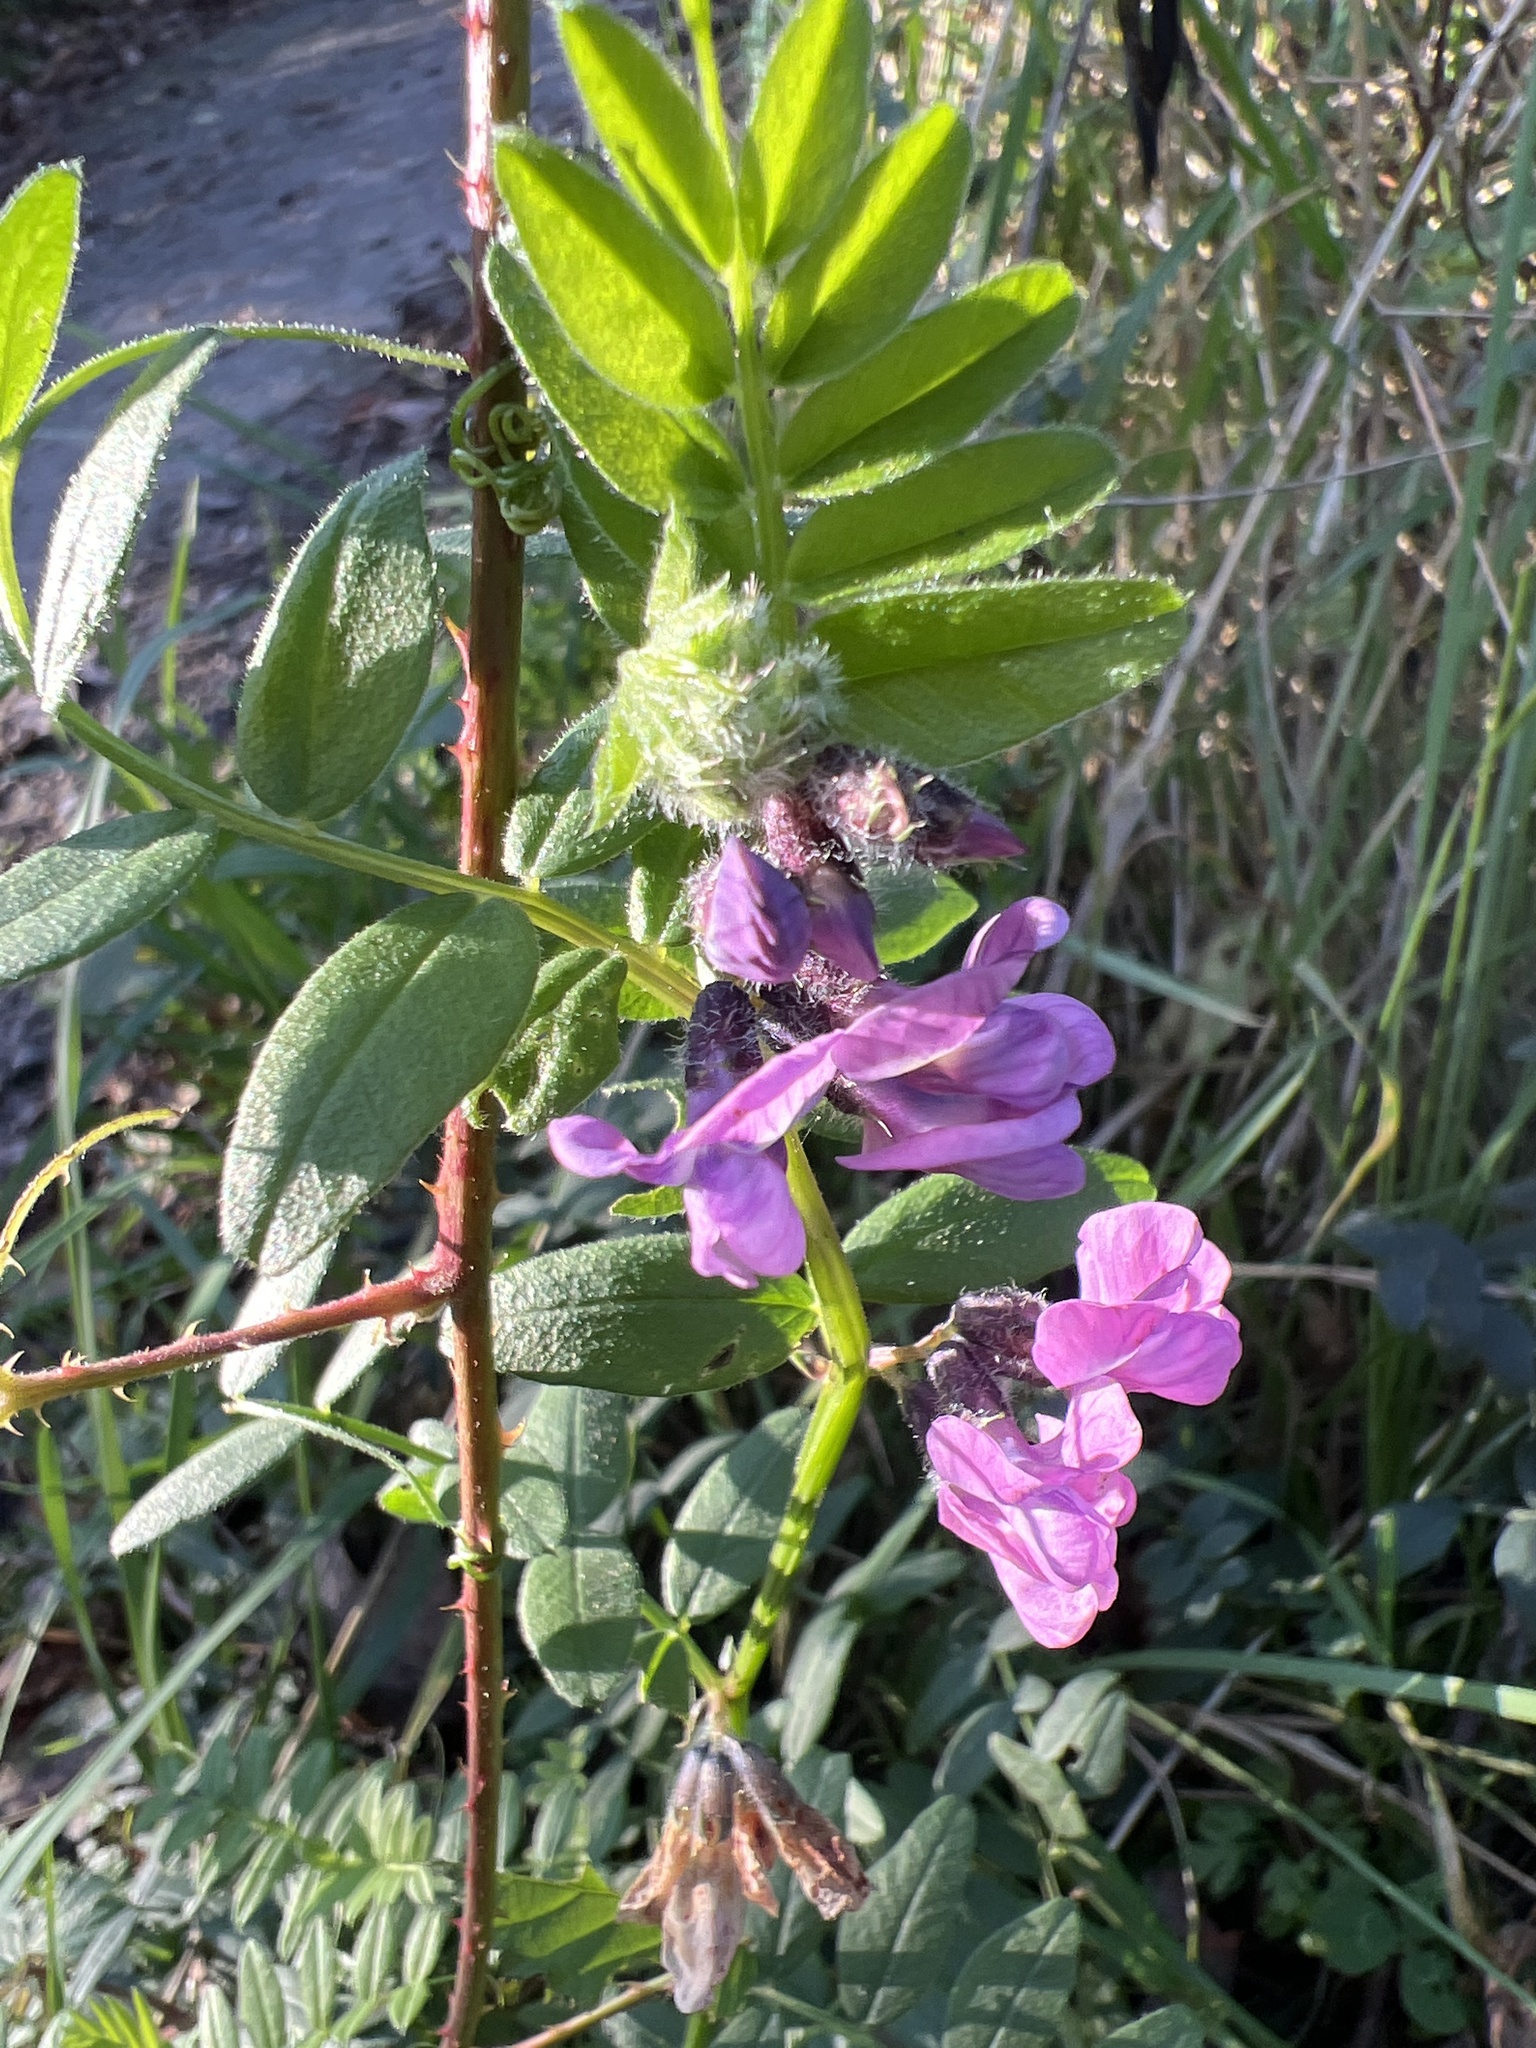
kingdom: Plantae
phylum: Tracheophyta
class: Magnoliopsida
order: Fabales
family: Fabaceae
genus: Vicia
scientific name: Vicia sepium
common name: Bush vetch
